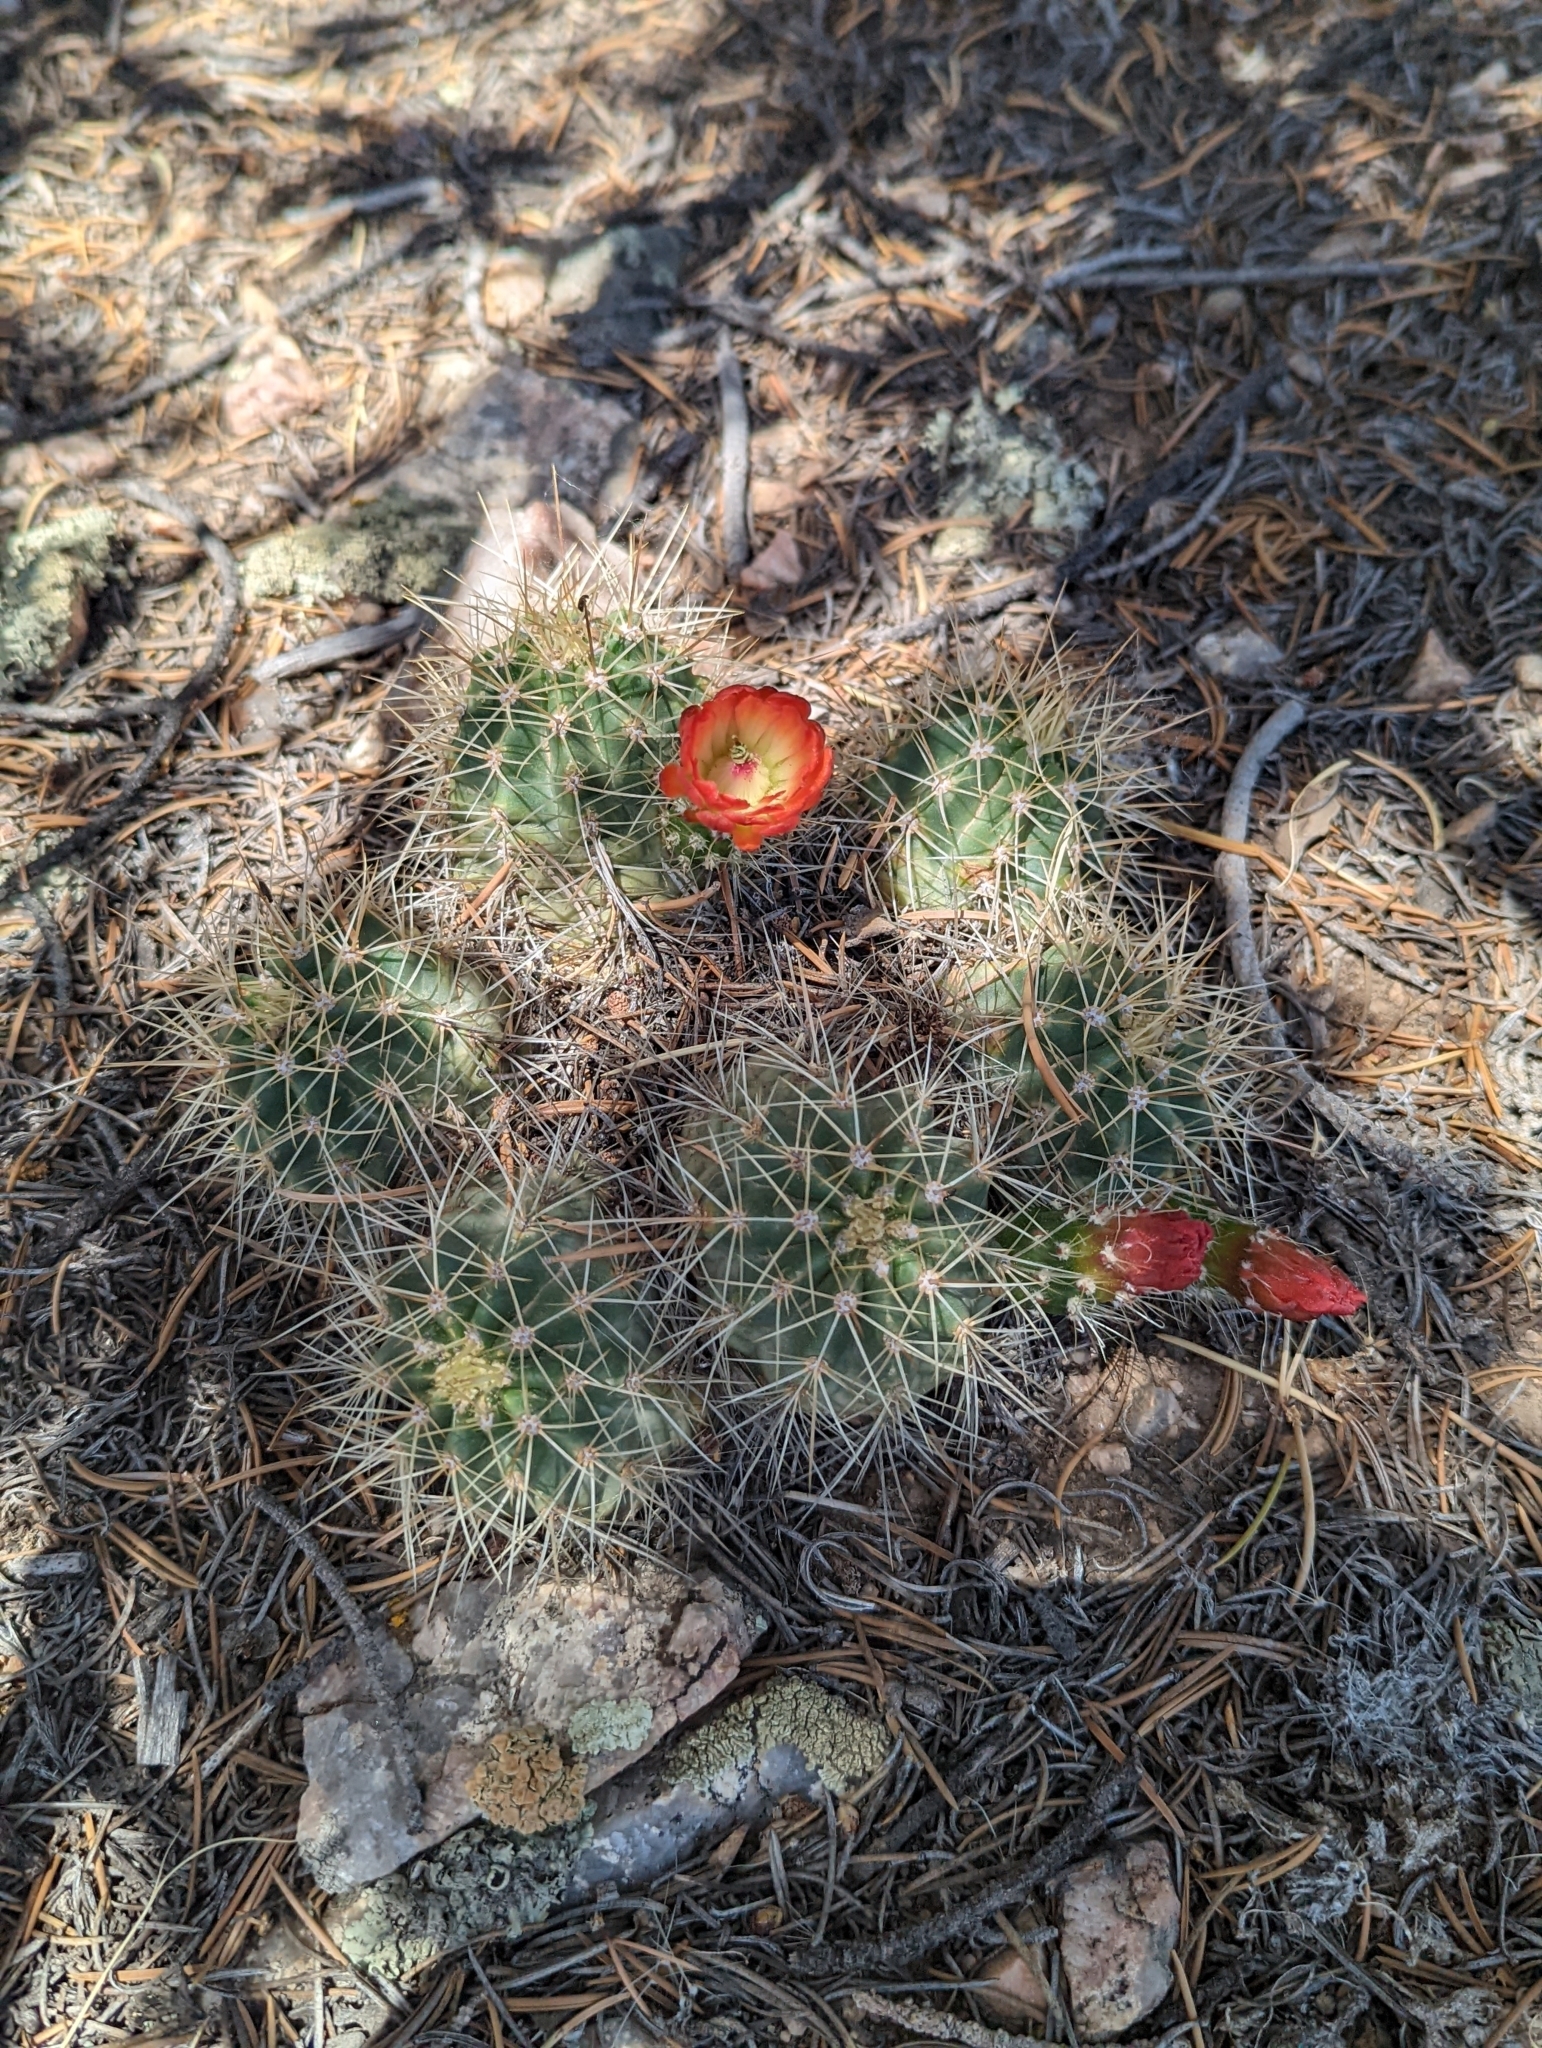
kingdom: Plantae
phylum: Tracheophyta
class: Magnoliopsida
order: Caryophyllales
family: Cactaceae
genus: Echinocereus
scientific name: Echinocereus coccineus
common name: Scarlet hedgehog cactus
